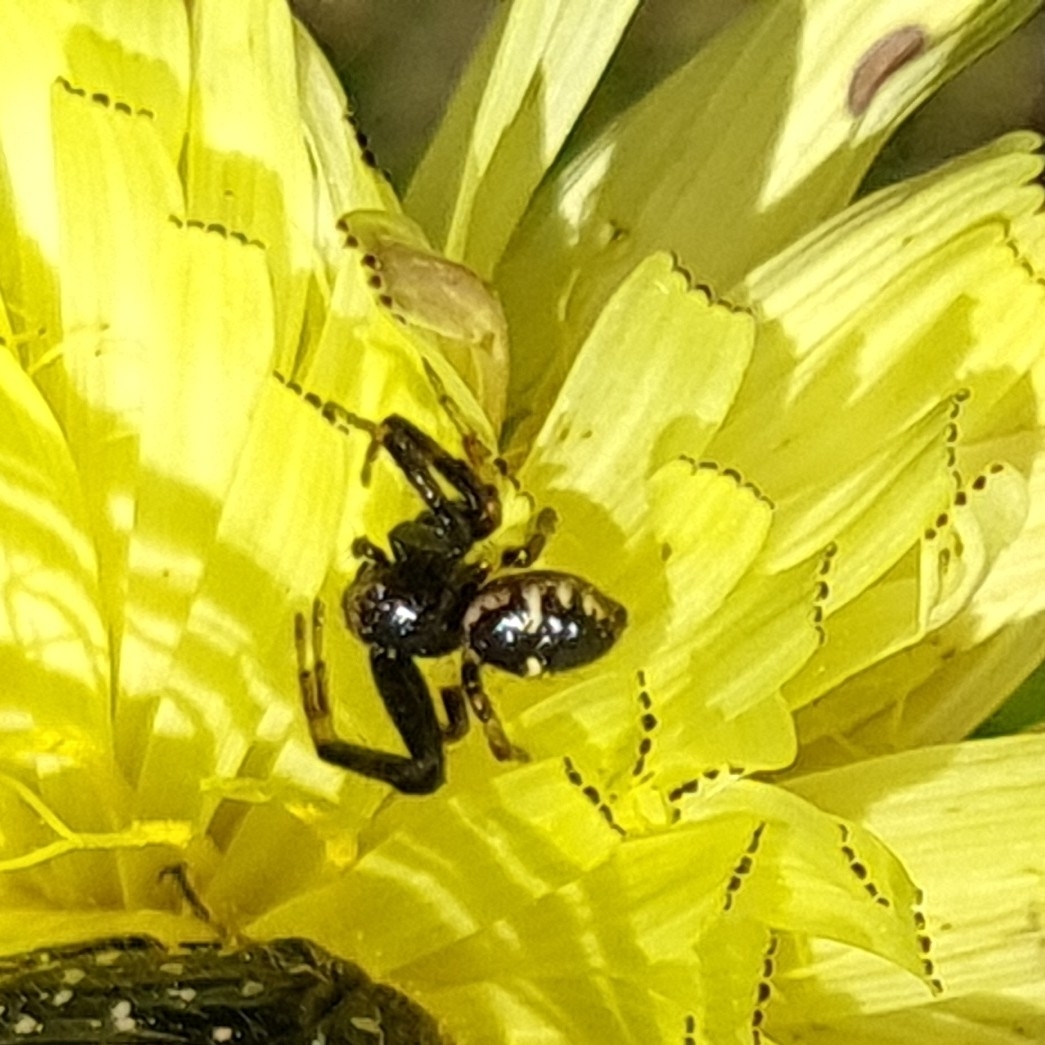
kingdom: Animalia
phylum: Arthropoda
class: Arachnida
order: Araneae
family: Thomisidae
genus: Synema
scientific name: Synema globosum
